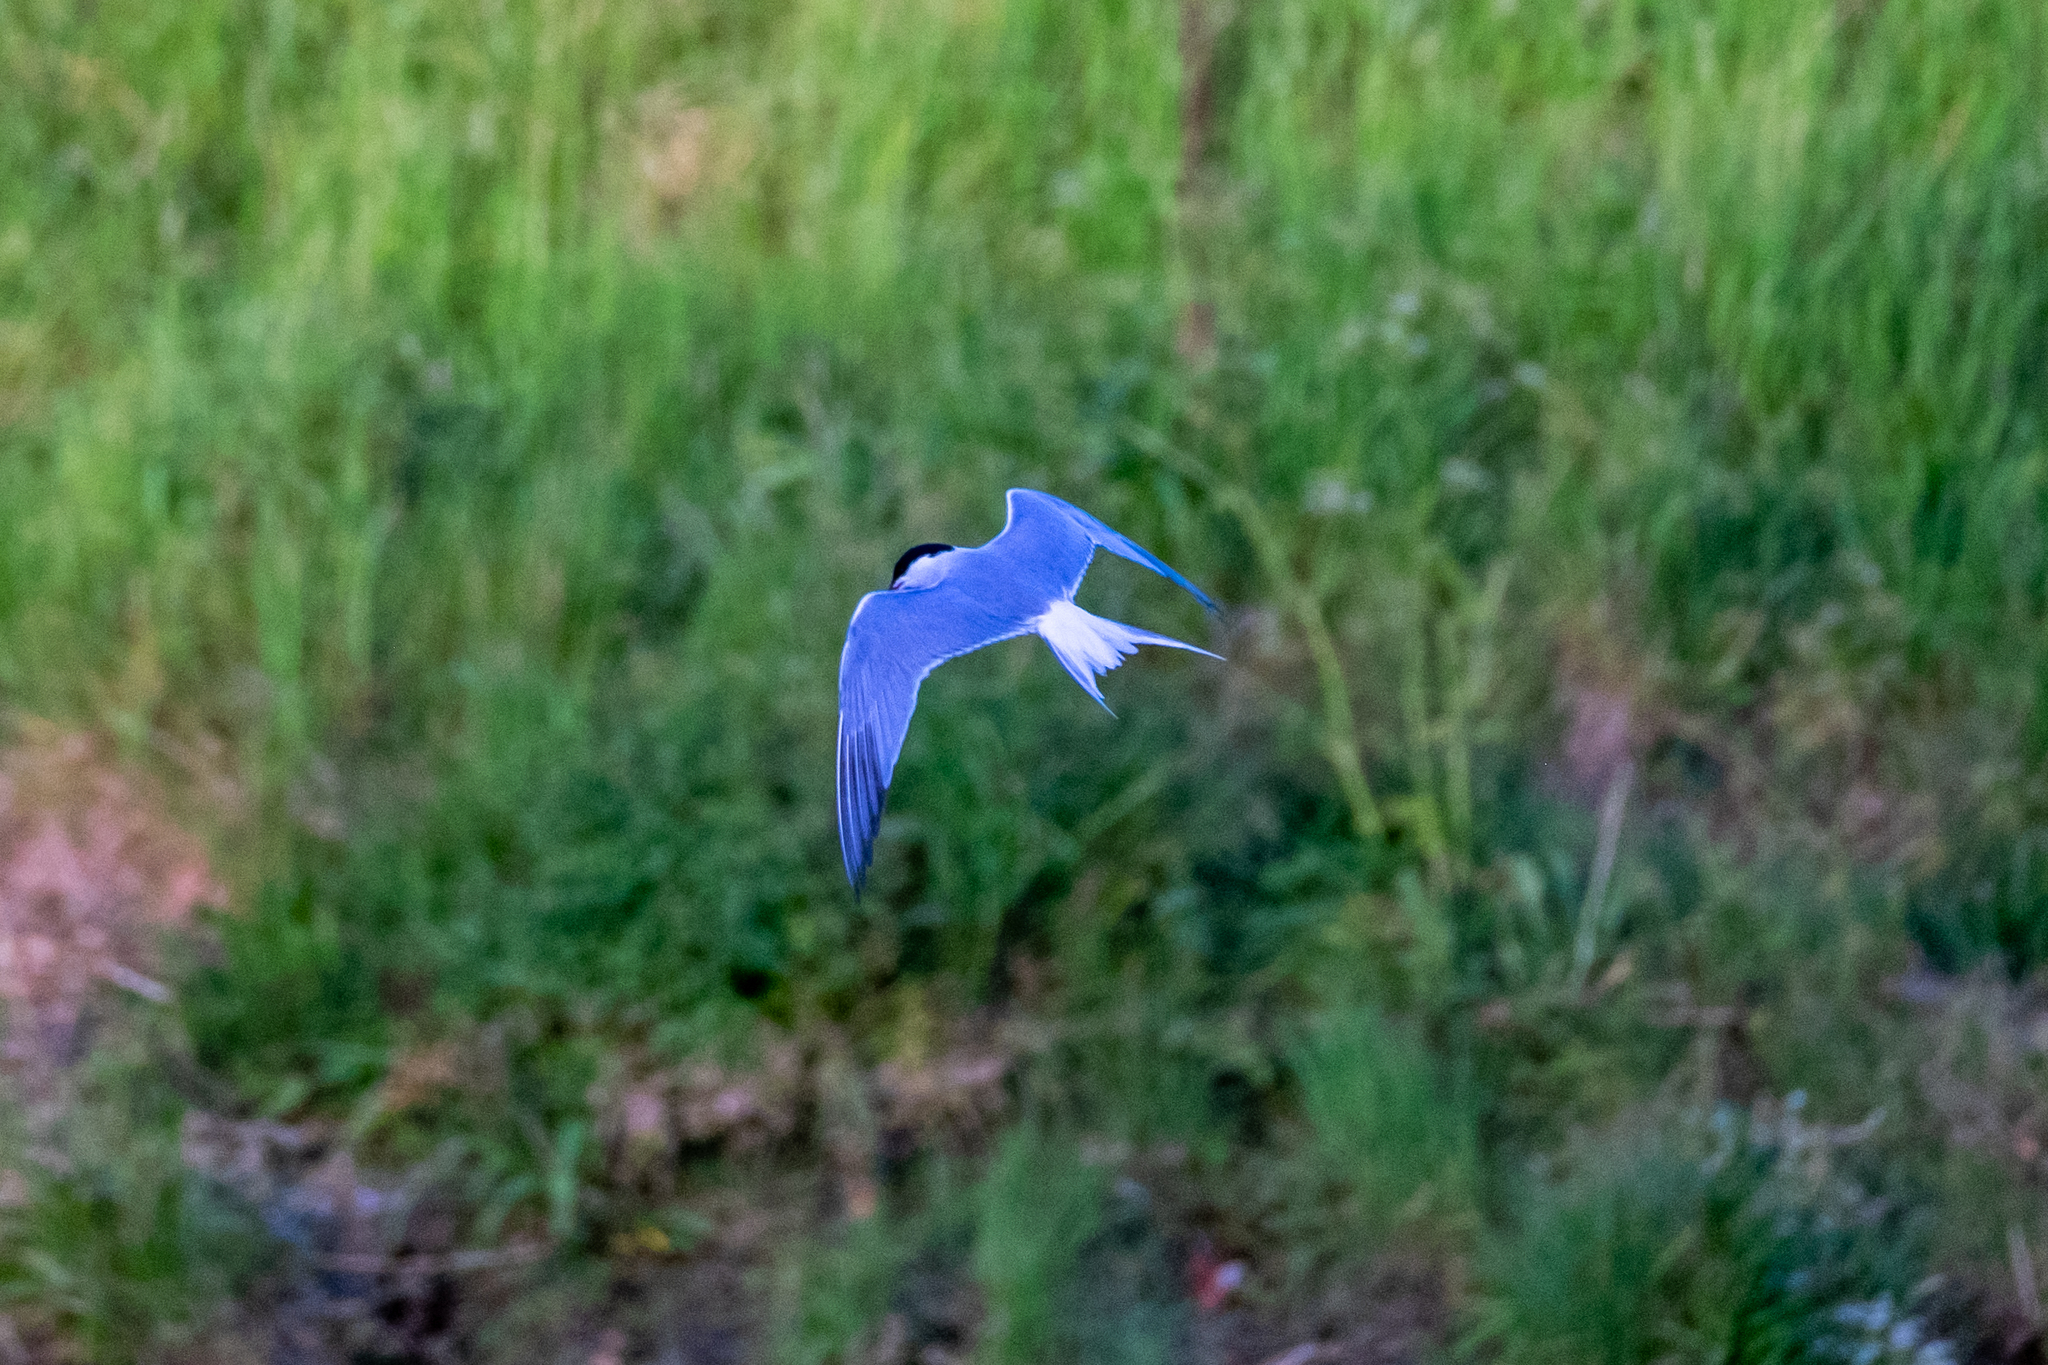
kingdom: Animalia
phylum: Chordata
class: Aves
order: Charadriiformes
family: Laridae
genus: Sterna
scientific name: Sterna hirundo
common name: Common tern
